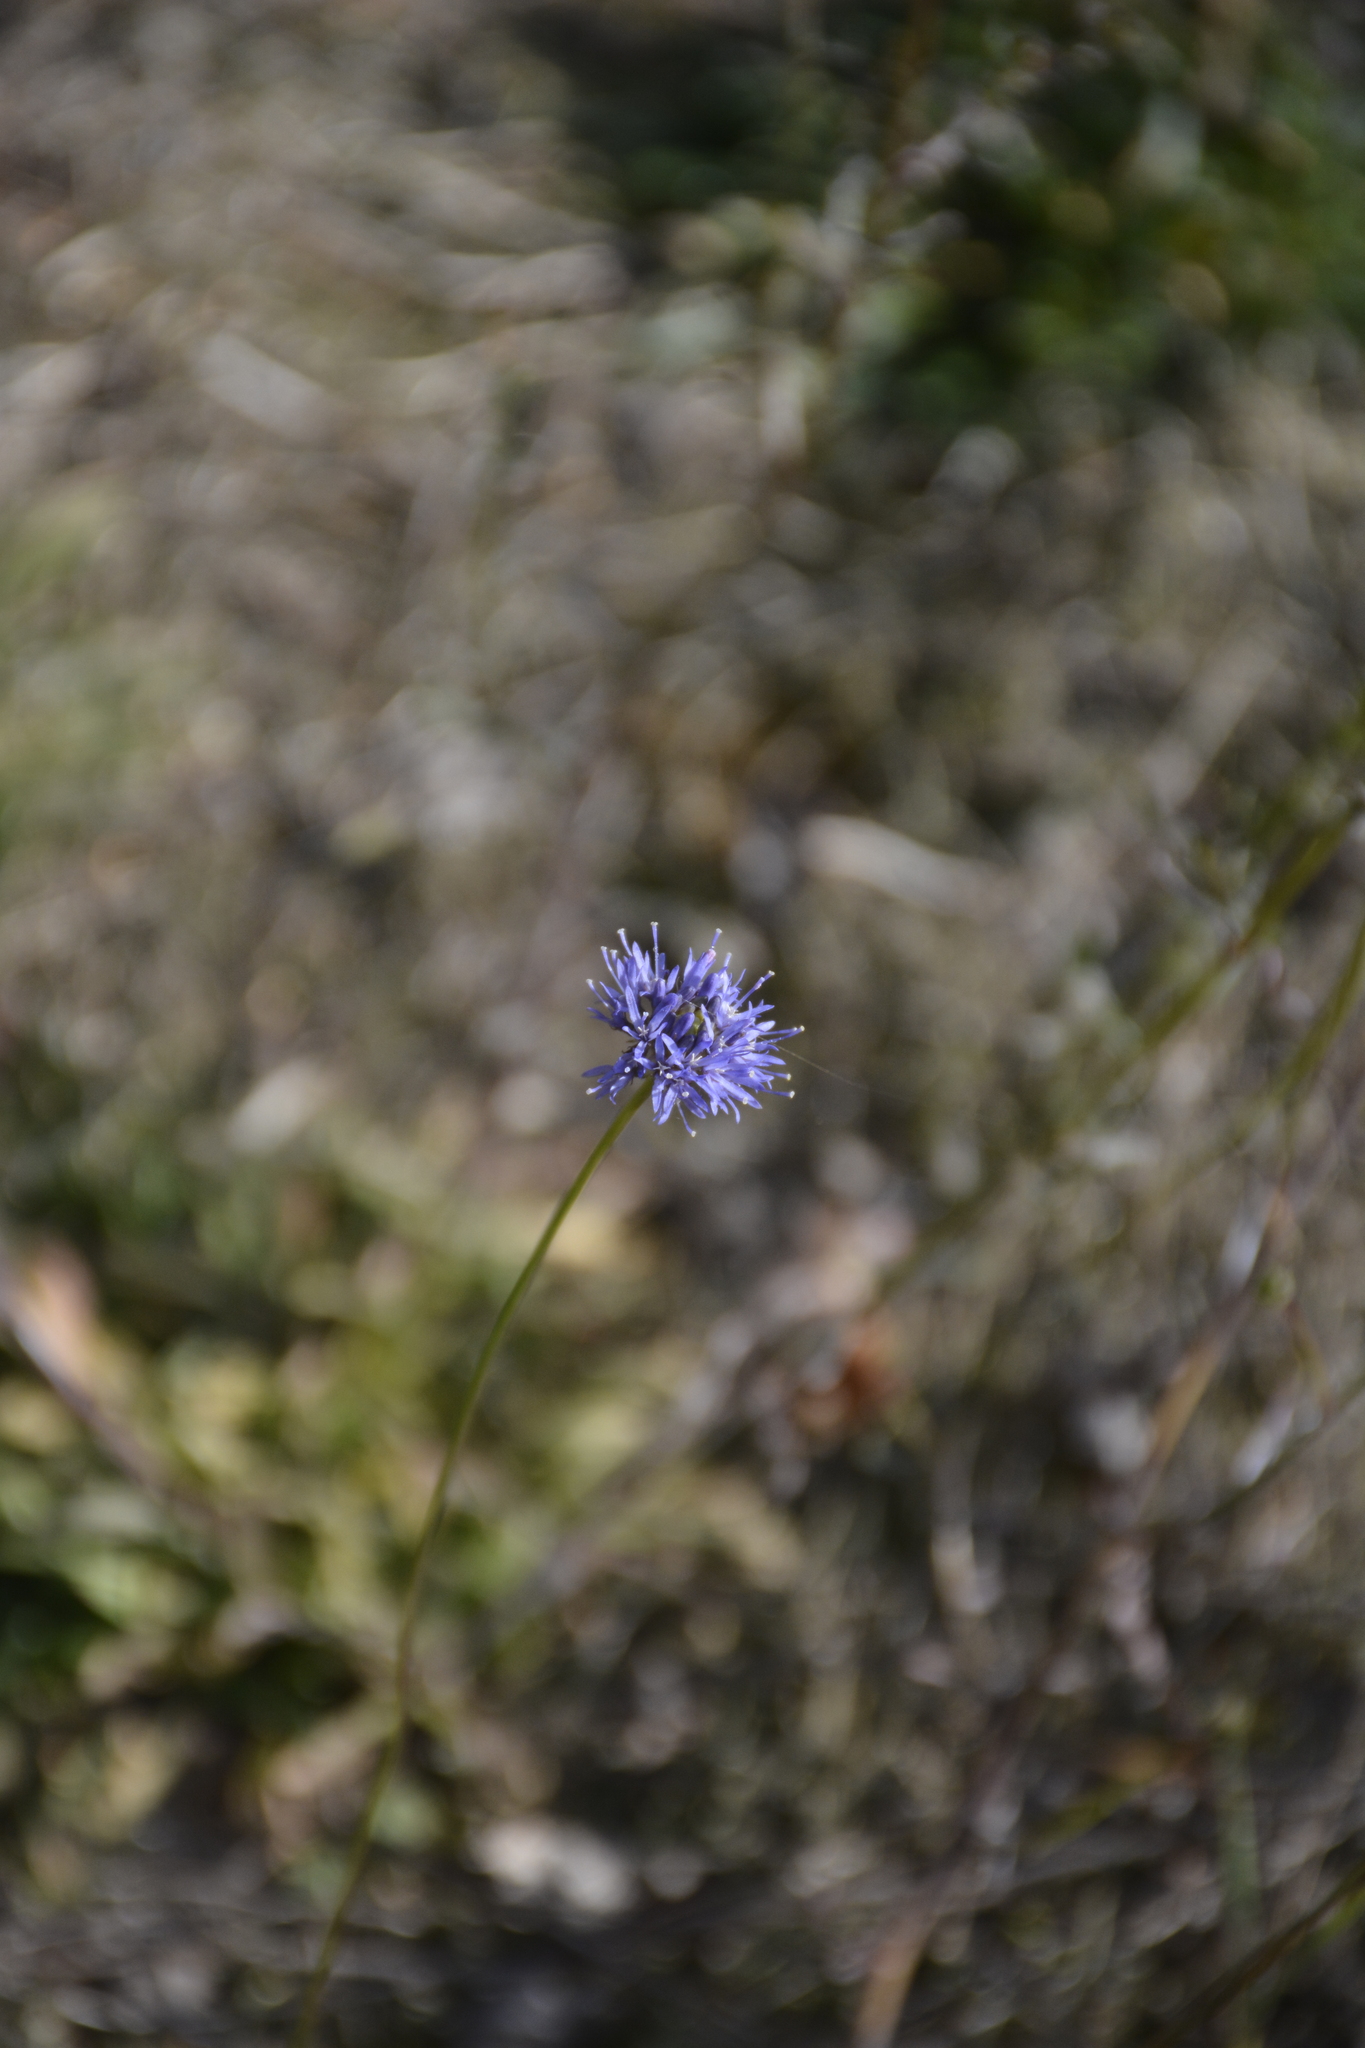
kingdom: Plantae
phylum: Tracheophyta
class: Magnoliopsida
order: Asterales
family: Campanulaceae
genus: Jasione
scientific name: Jasione montana
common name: Sheep's-bit
